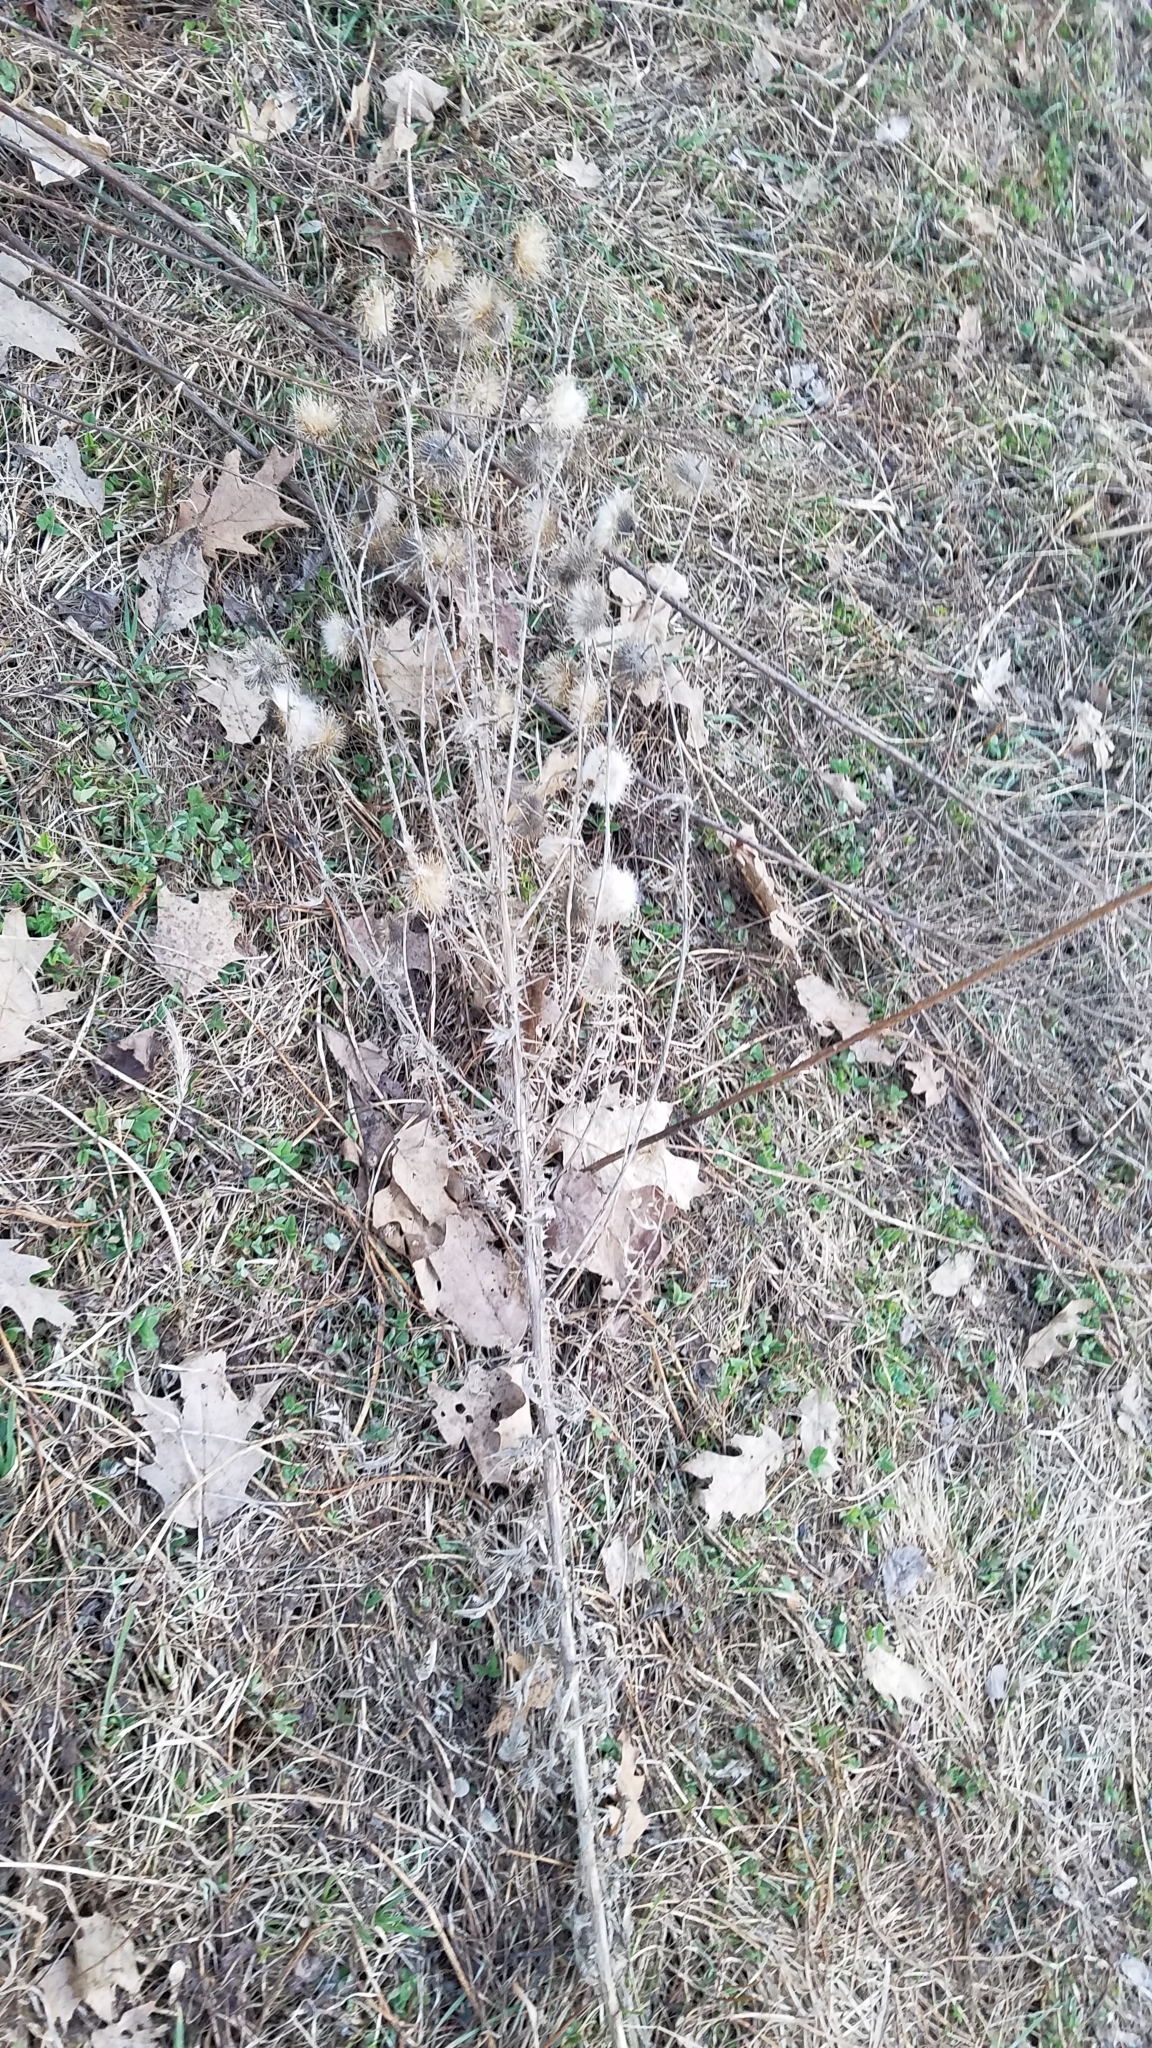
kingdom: Plantae
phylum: Tracheophyta
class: Magnoliopsida
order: Asterales
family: Asteraceae
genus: Cirsium
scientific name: Cirsium vulgare
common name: Bull thistle
